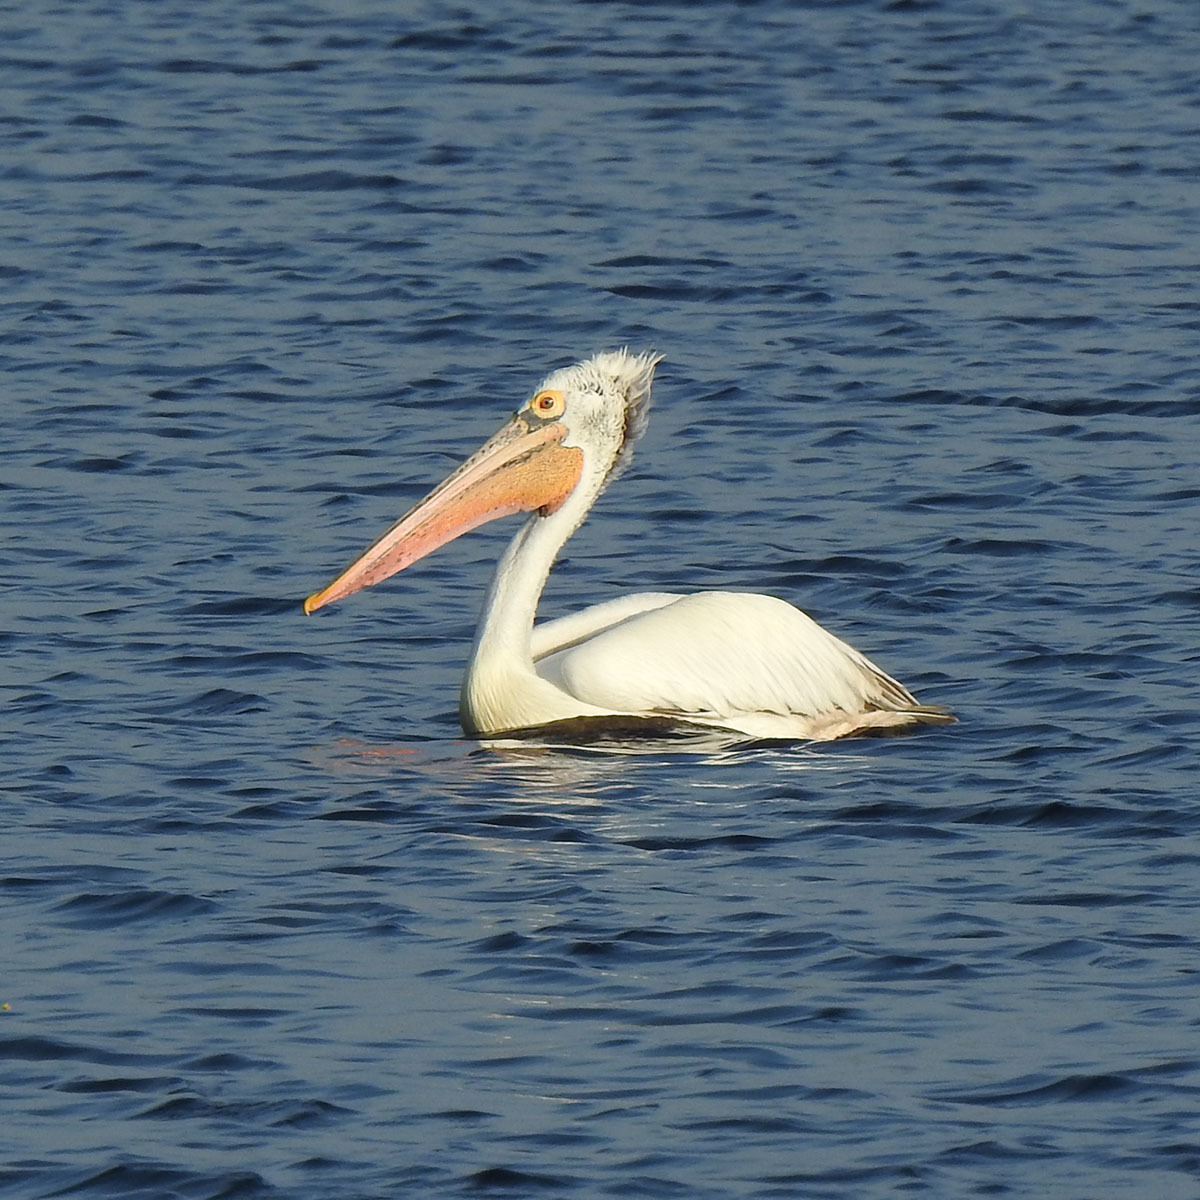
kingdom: Animalia
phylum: Chordata
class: Aves
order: Pelecaniformes
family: Pelecanidae
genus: Pelecanus
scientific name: Pelecanus philippensis
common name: Spot-billed pelican
